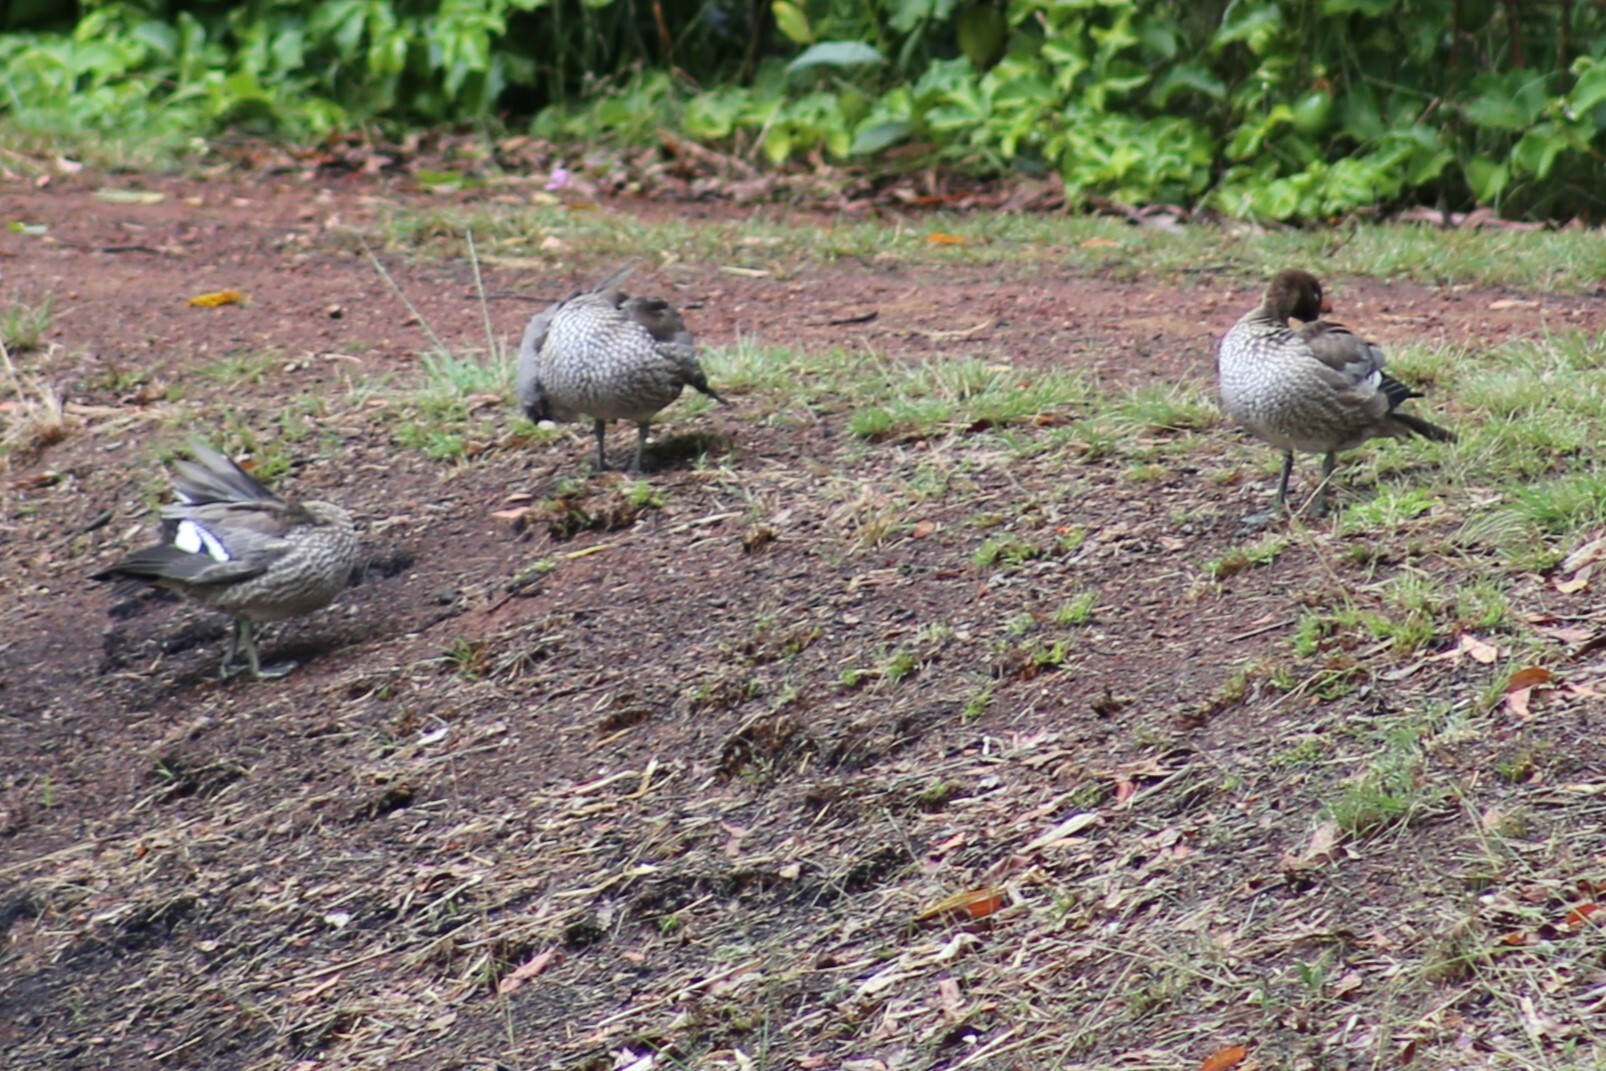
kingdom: Animalia
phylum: Chordata
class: Aves
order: Anseriformes
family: Anatidae
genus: Chenonetta
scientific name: Chenonetta jubata
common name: Maned duck
